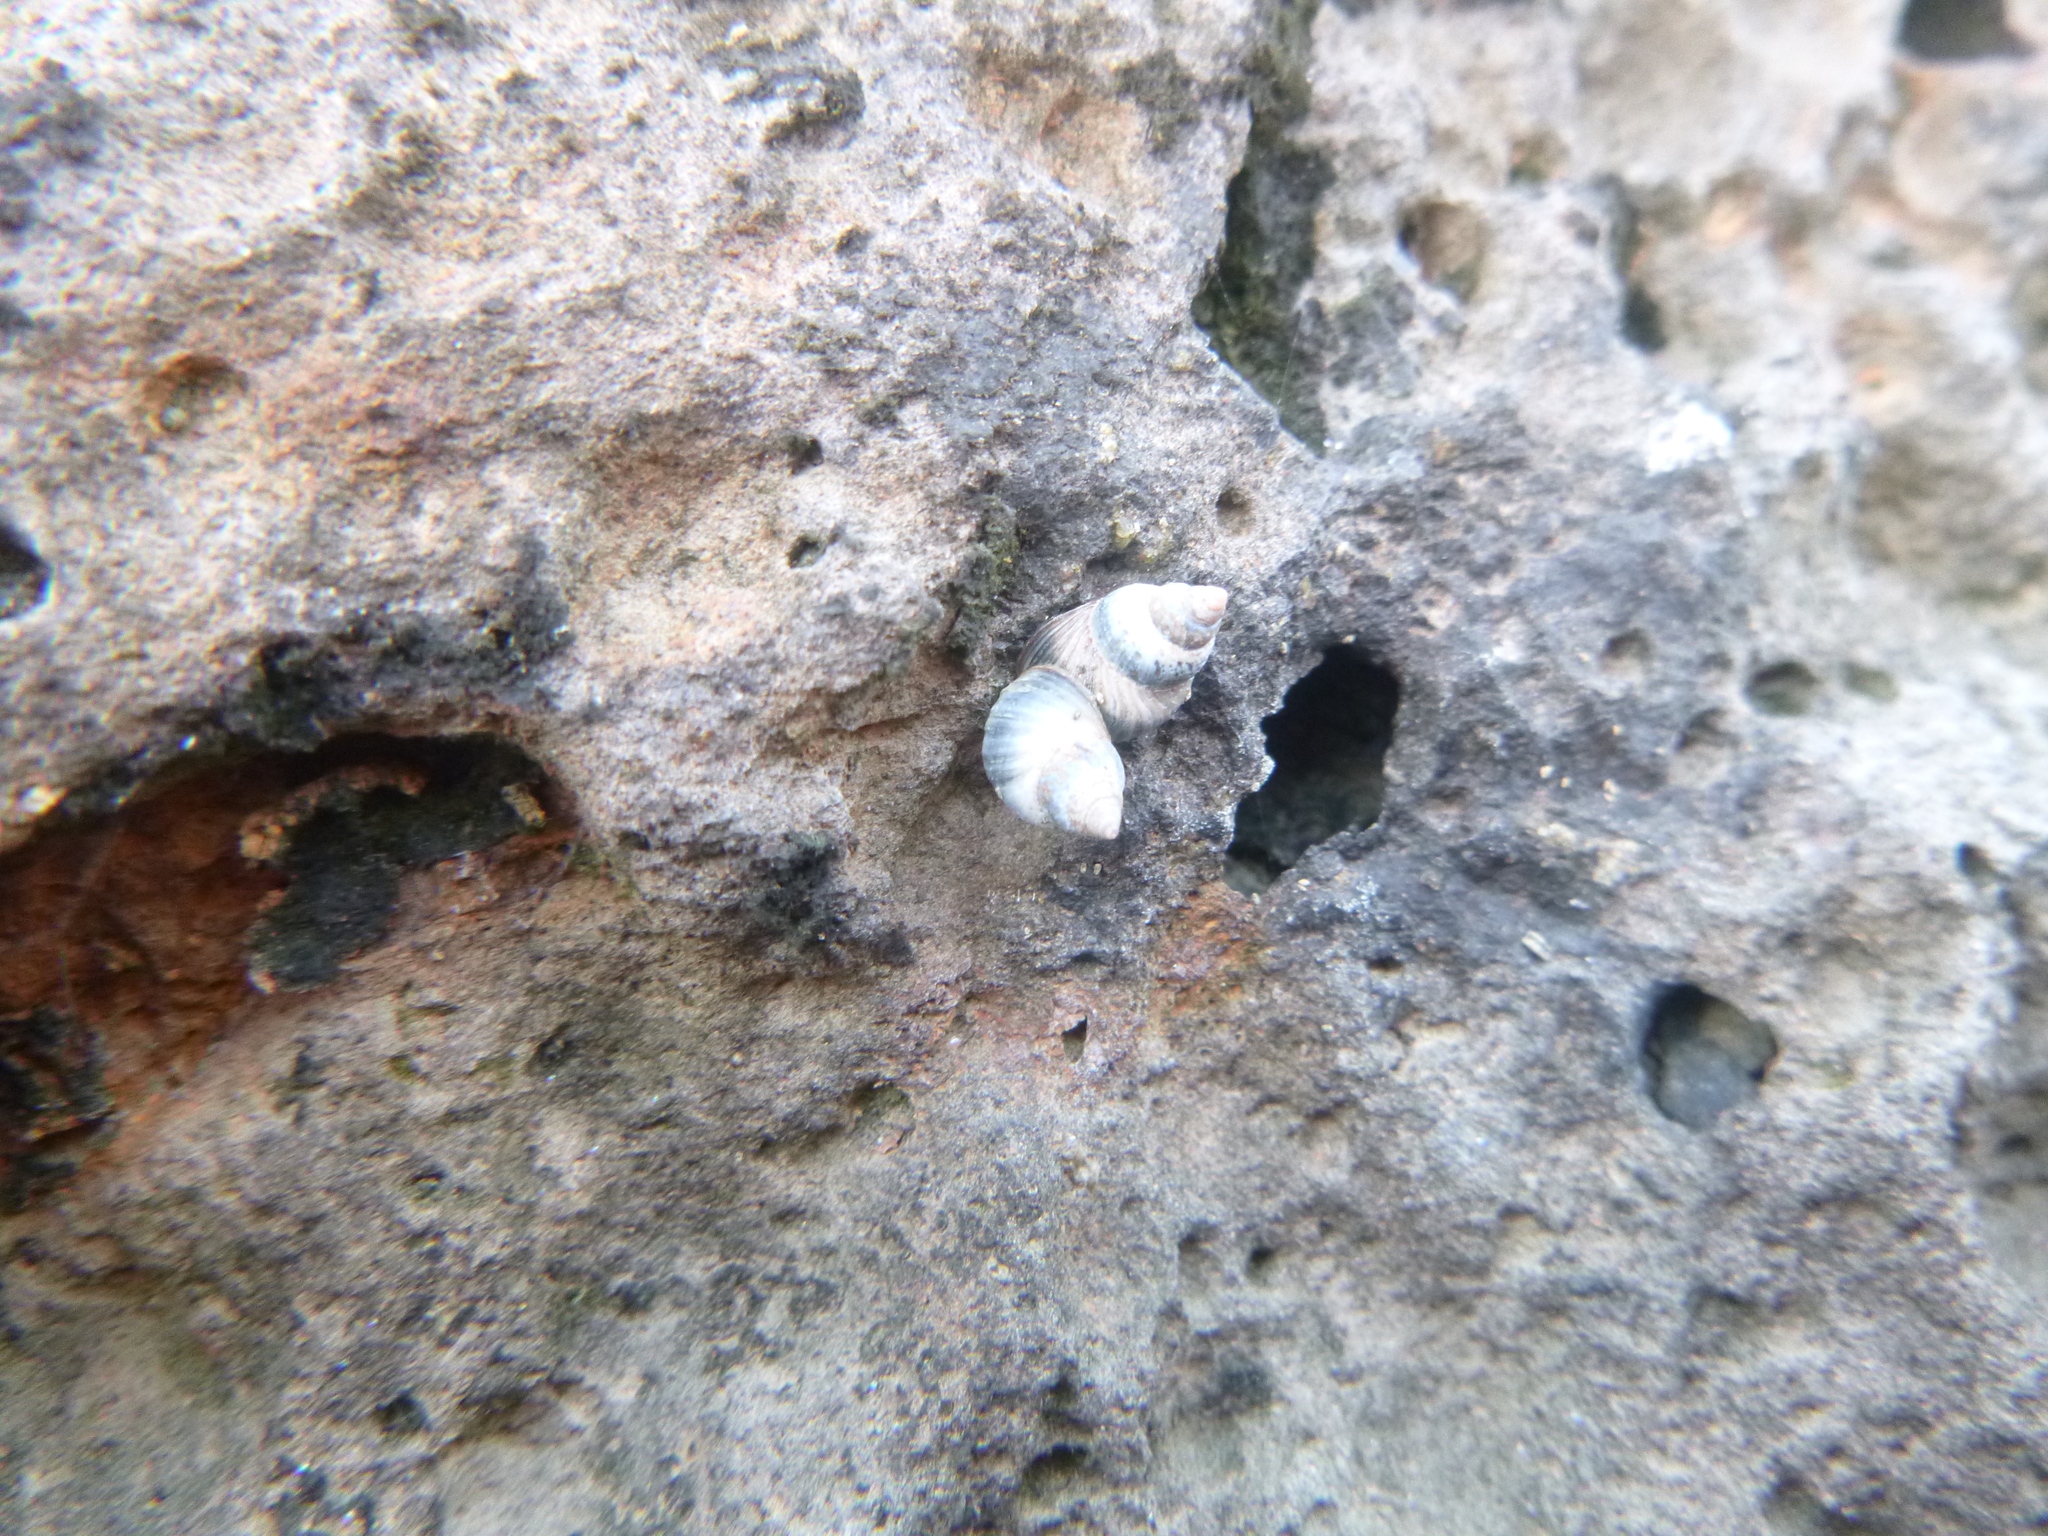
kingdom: Animalia
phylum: Mollusca
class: Gastropoda
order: Littorinimorpha
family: Littorinidae
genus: Austrolittorina
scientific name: Austrolittorina antipodum
